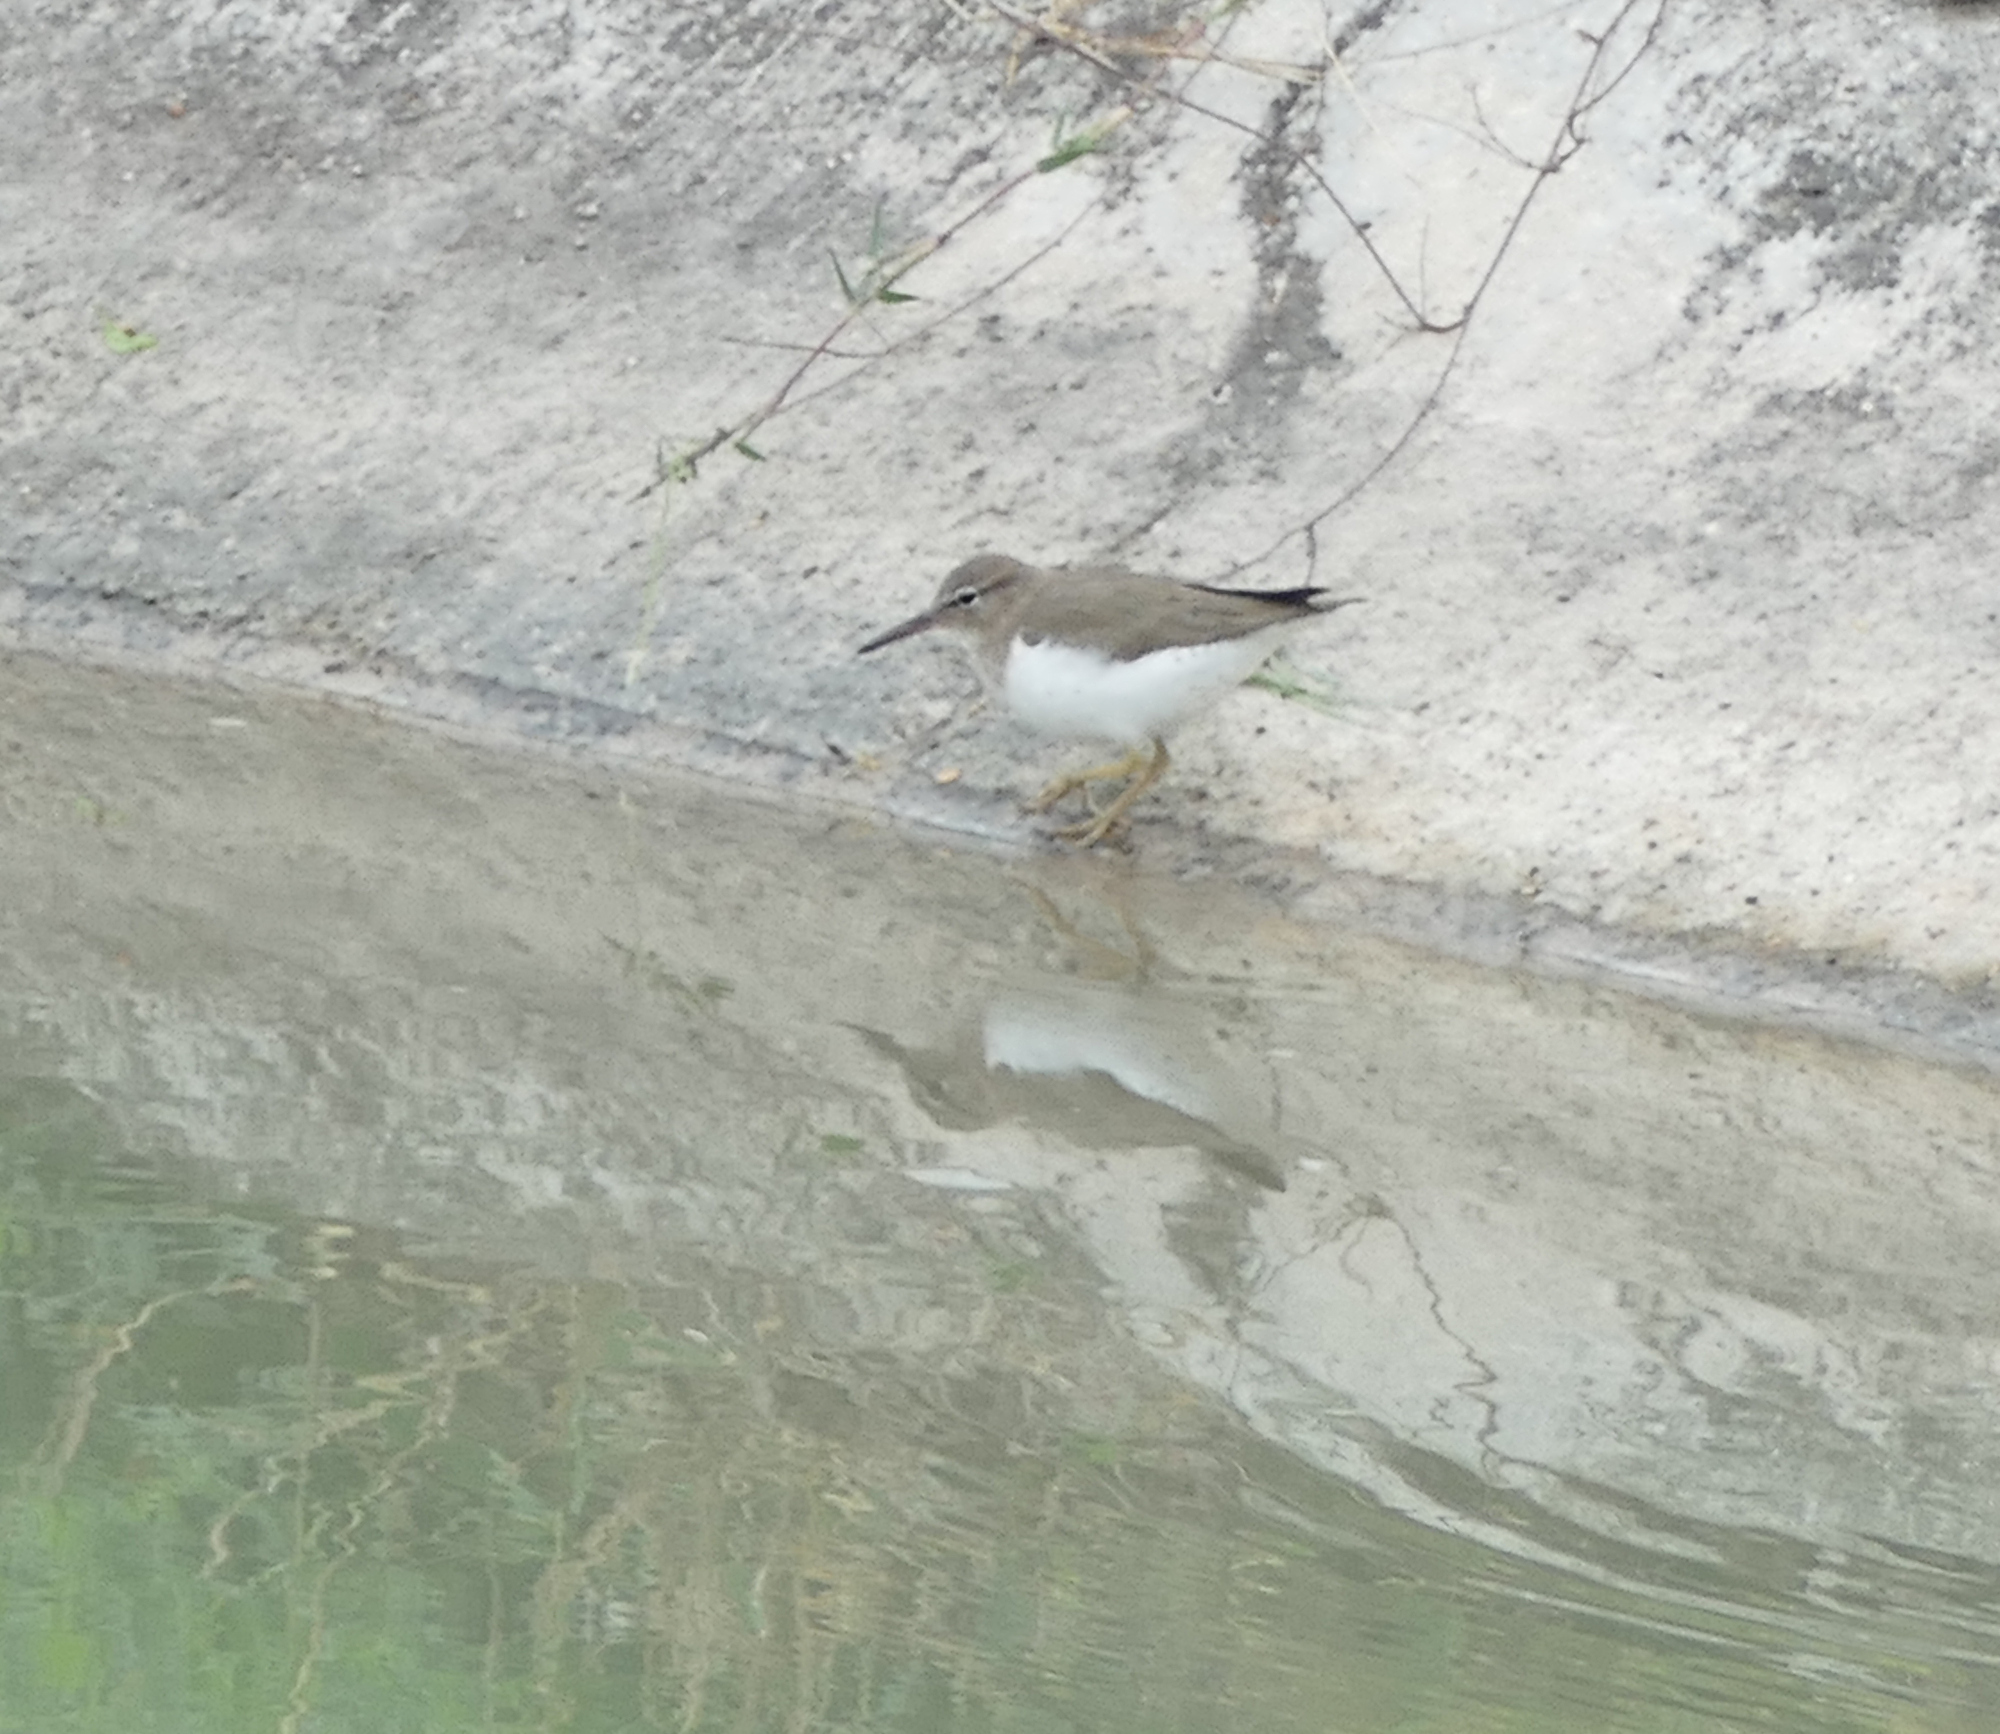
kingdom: Animalia
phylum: Chordata
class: Aves
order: Charadriiformes
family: Scolopacidae
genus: Actitis
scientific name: Actitis macularius
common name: Spotted sandpiper
